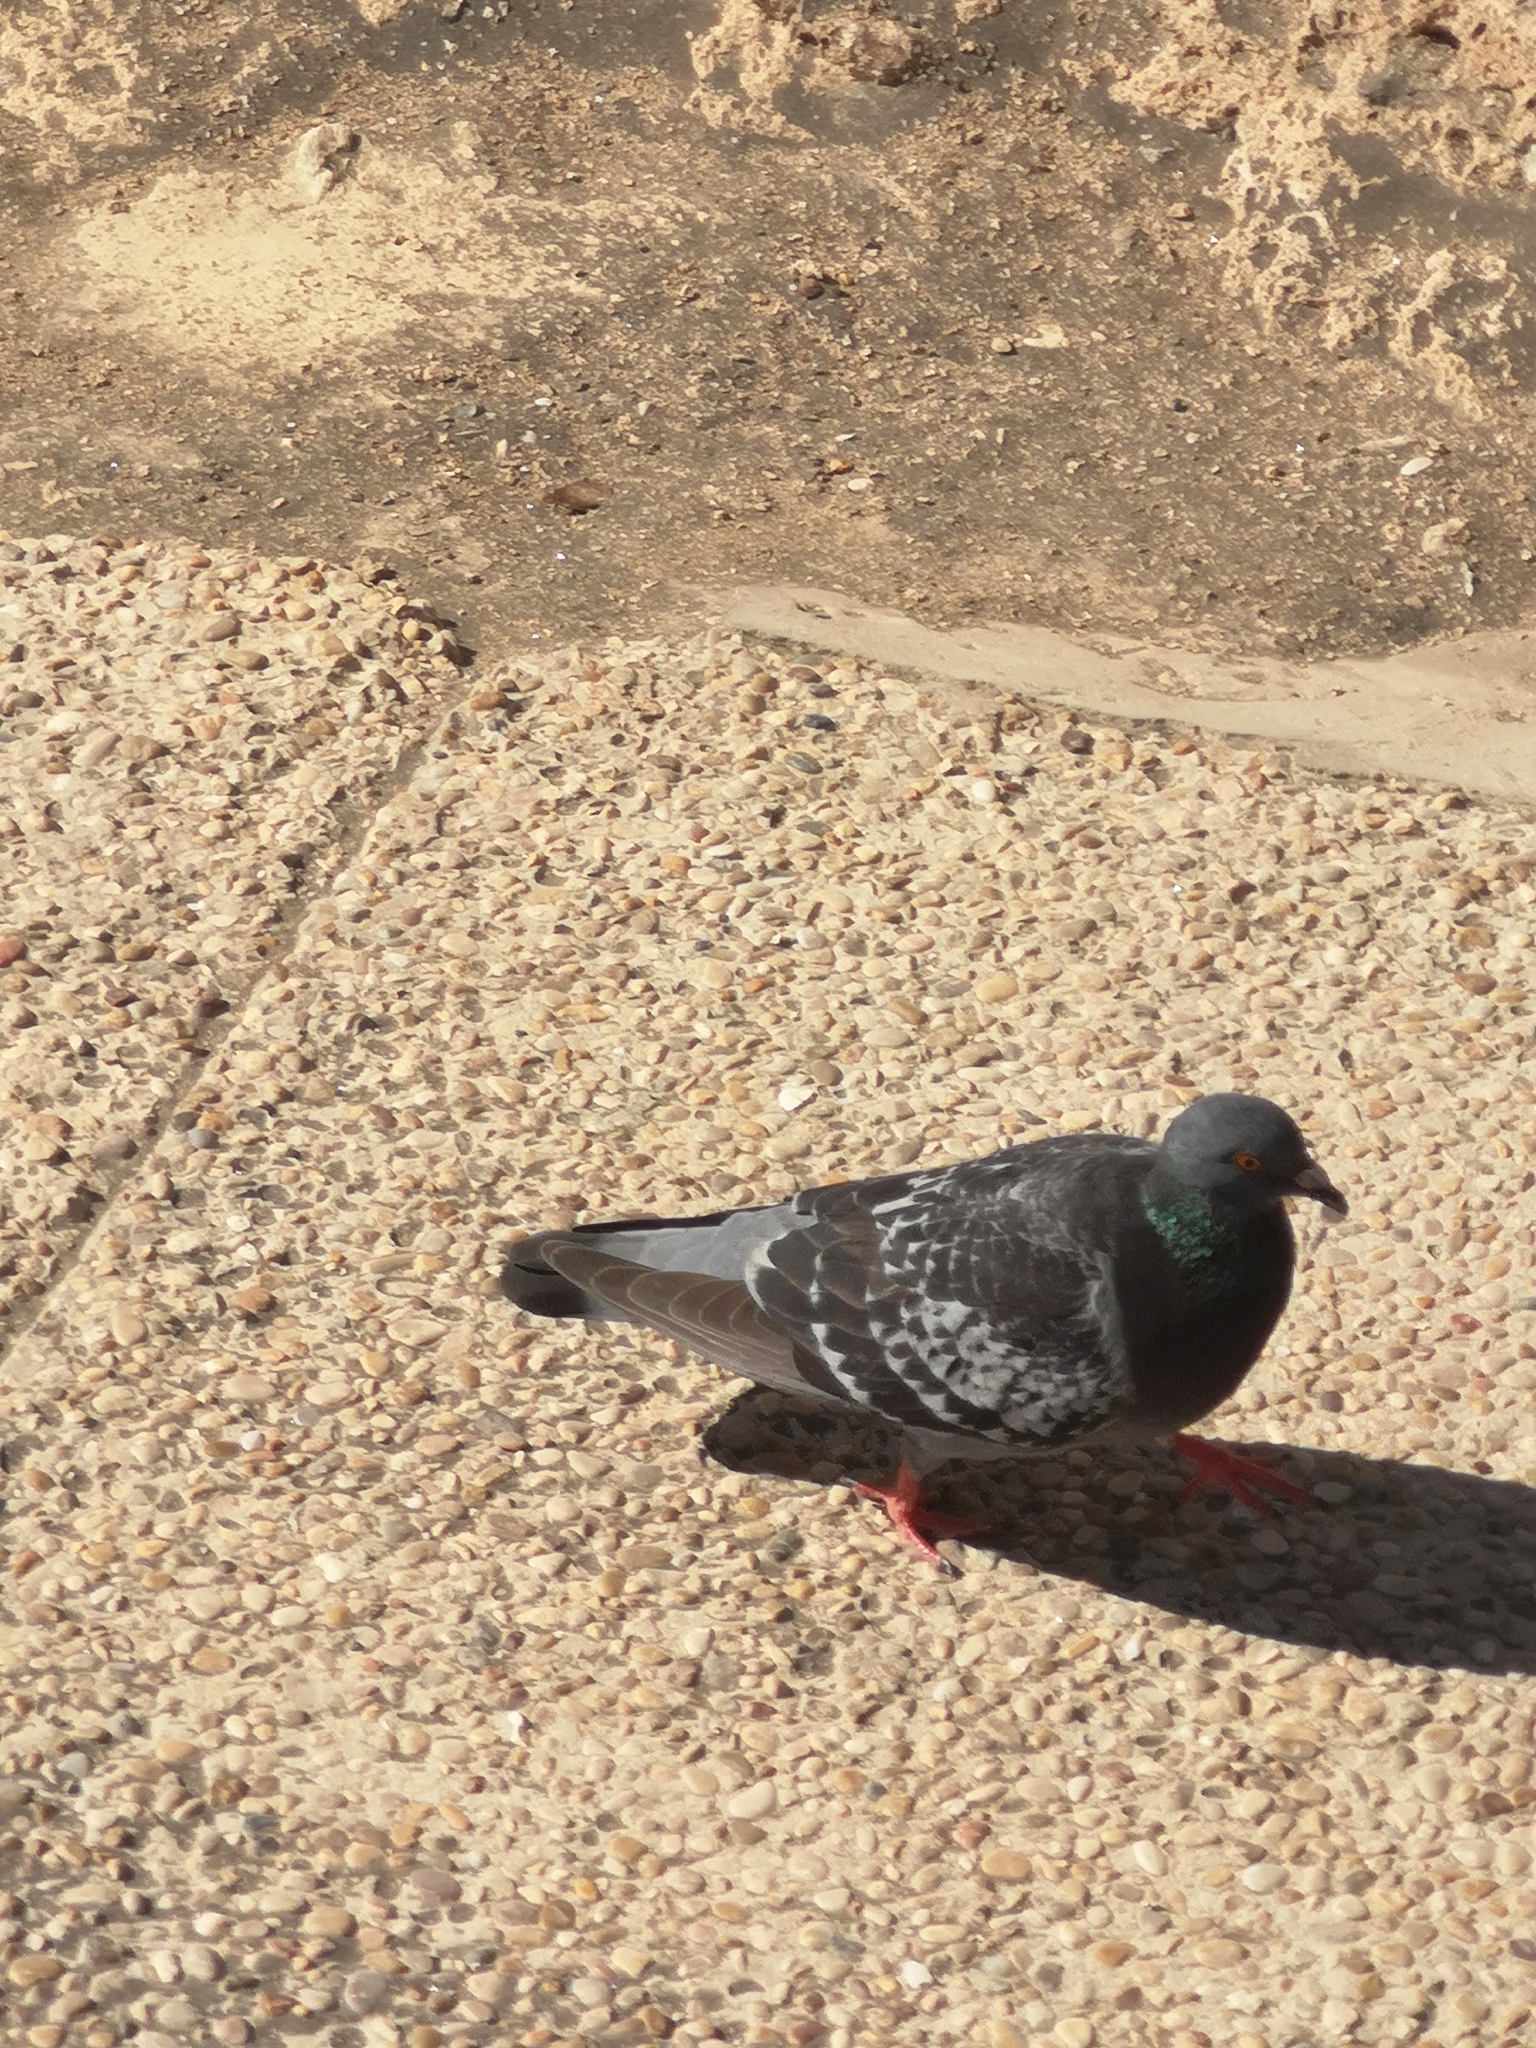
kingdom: Animalia
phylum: Chordata
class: Aves
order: Columbiformes
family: Columbidae
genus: Columba
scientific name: Columba livia
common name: Rock pigeon
